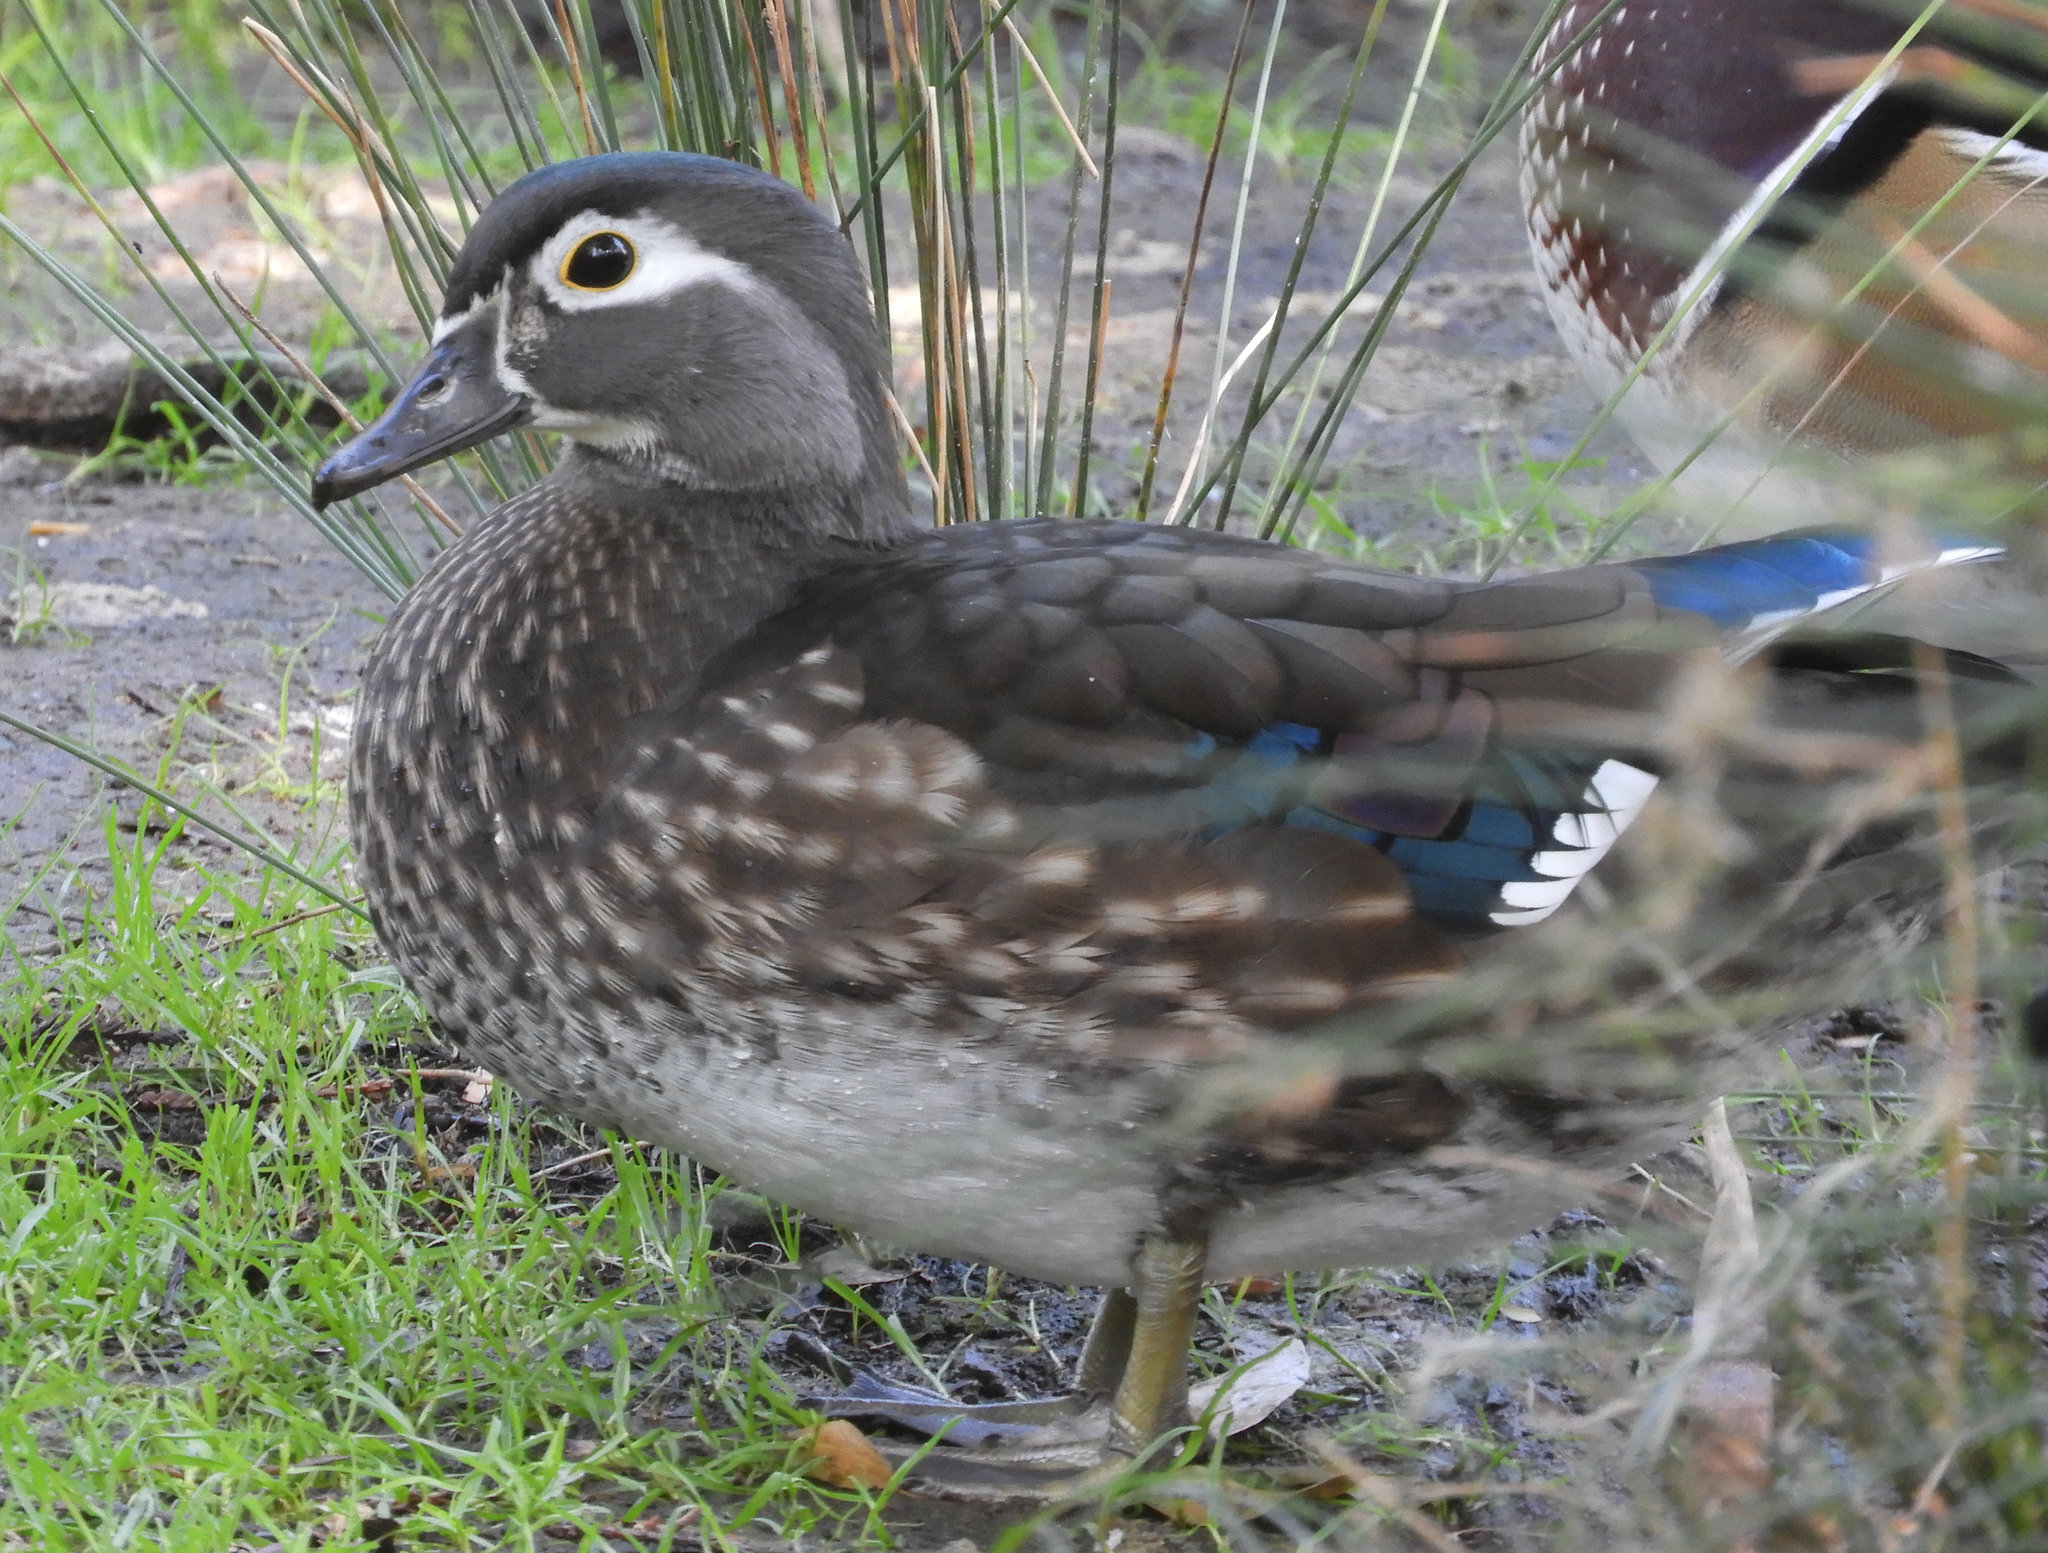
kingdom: Animalia
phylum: Chordata
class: Aves
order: Anseriformes
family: Anatidae
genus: Aix
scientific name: Aix sponsa
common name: Wood duck
